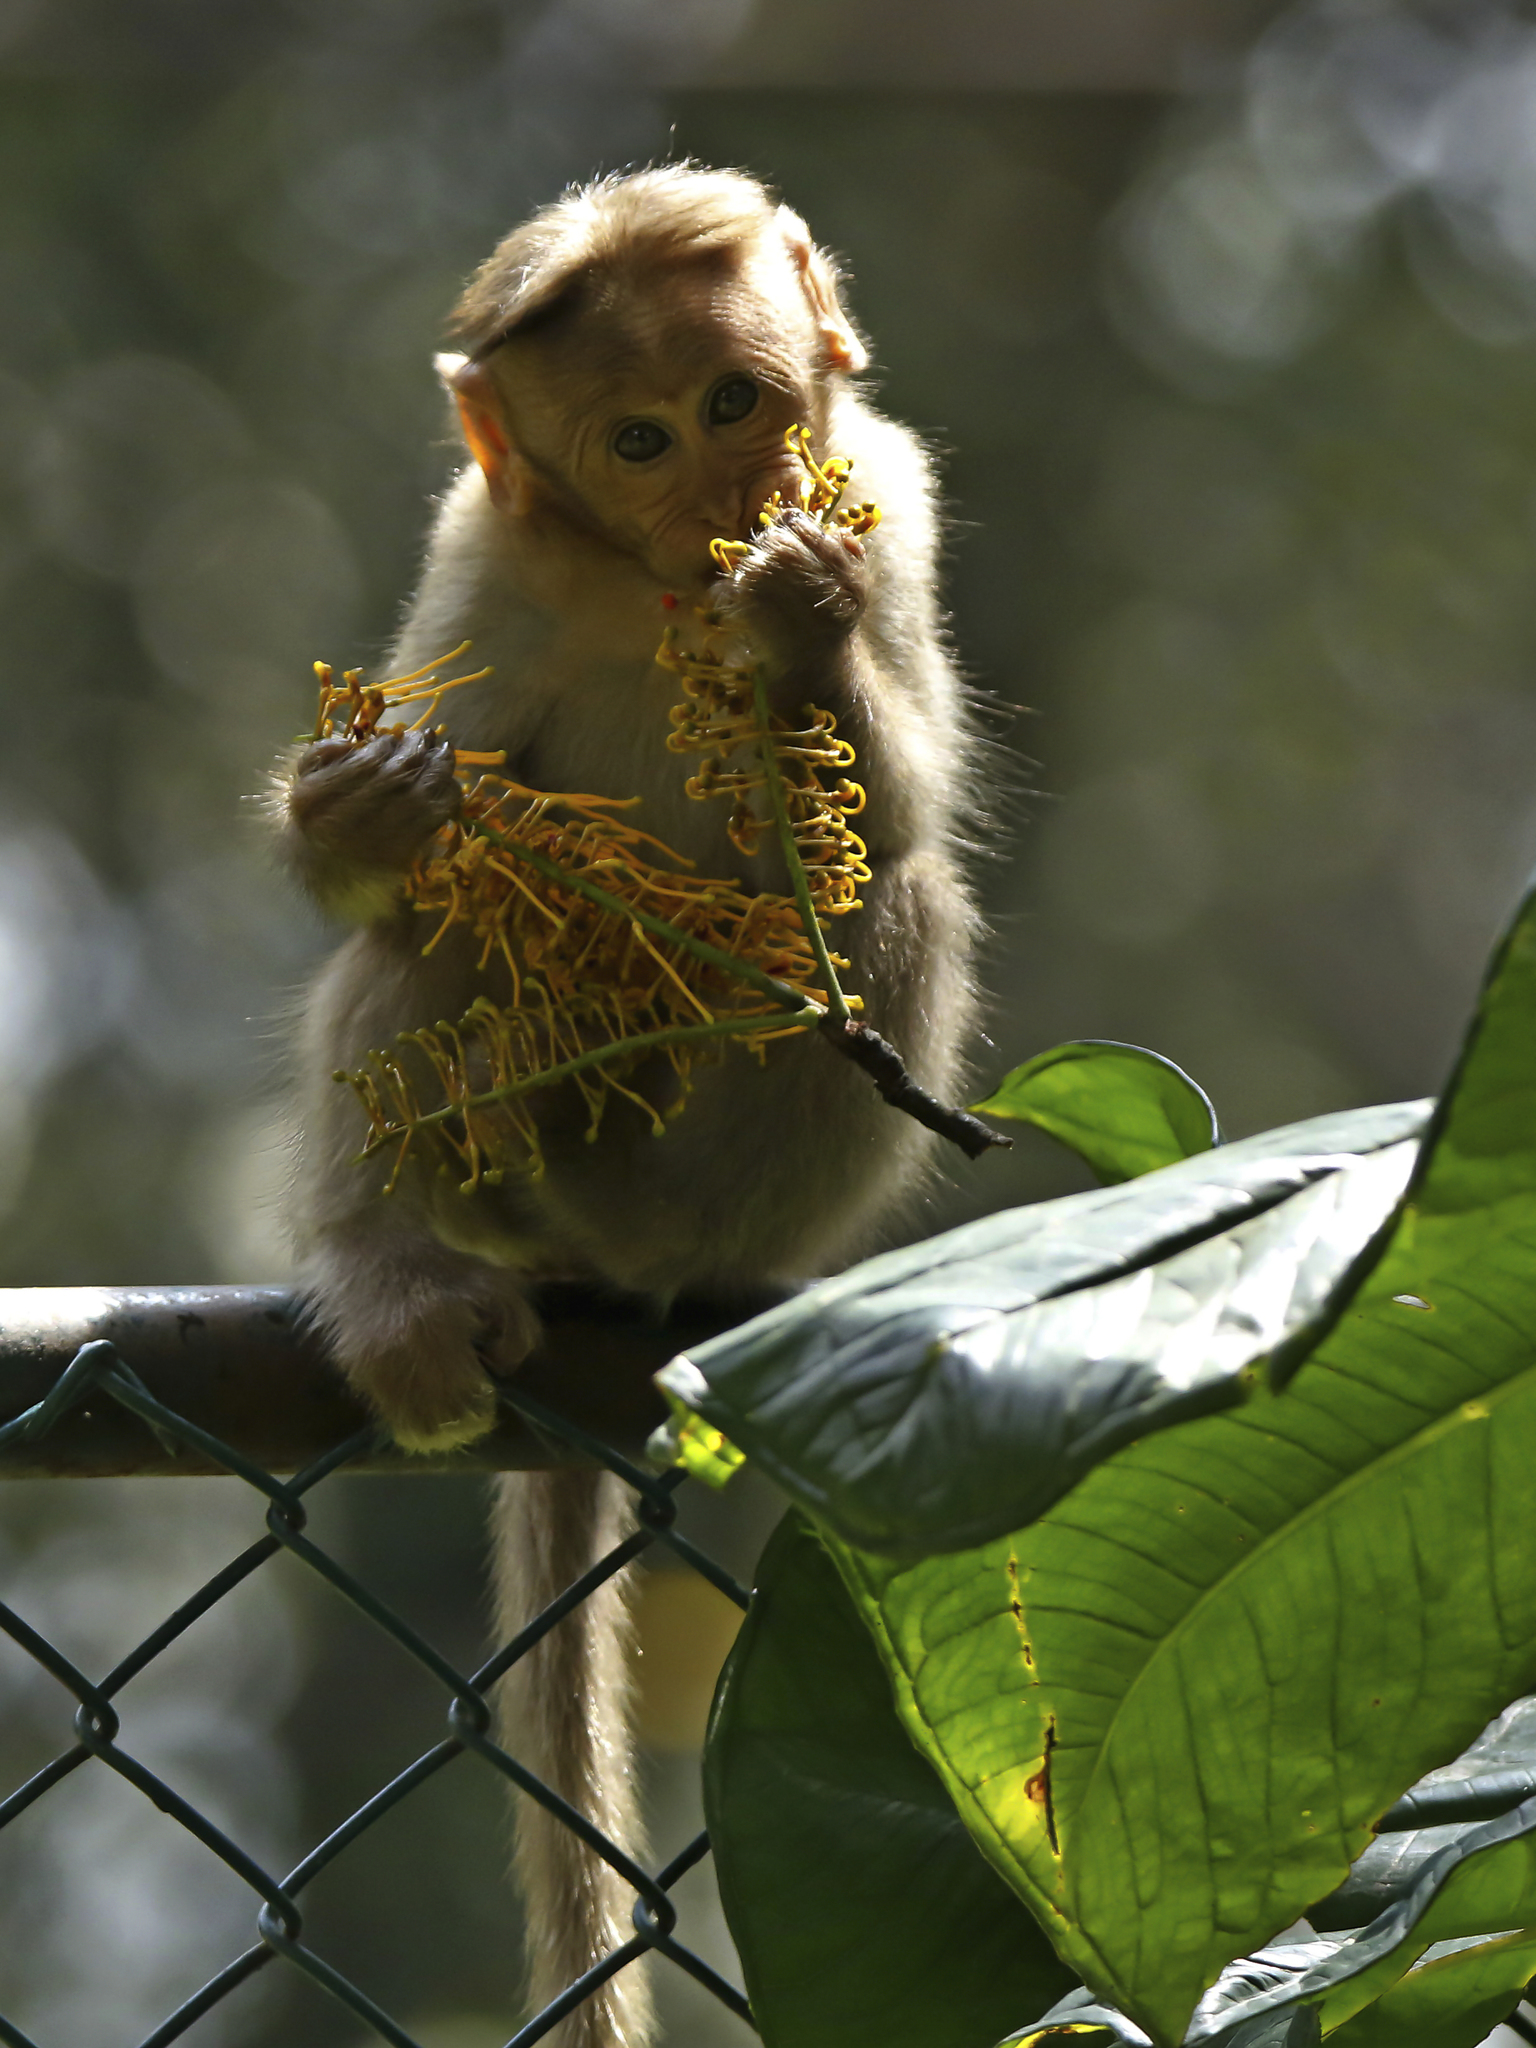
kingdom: Animalia
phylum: Chordata
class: Mammalia
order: Primates
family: Cercopithecidae
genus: Macaca
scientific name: Macaca radiata
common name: Bonnet macaque
